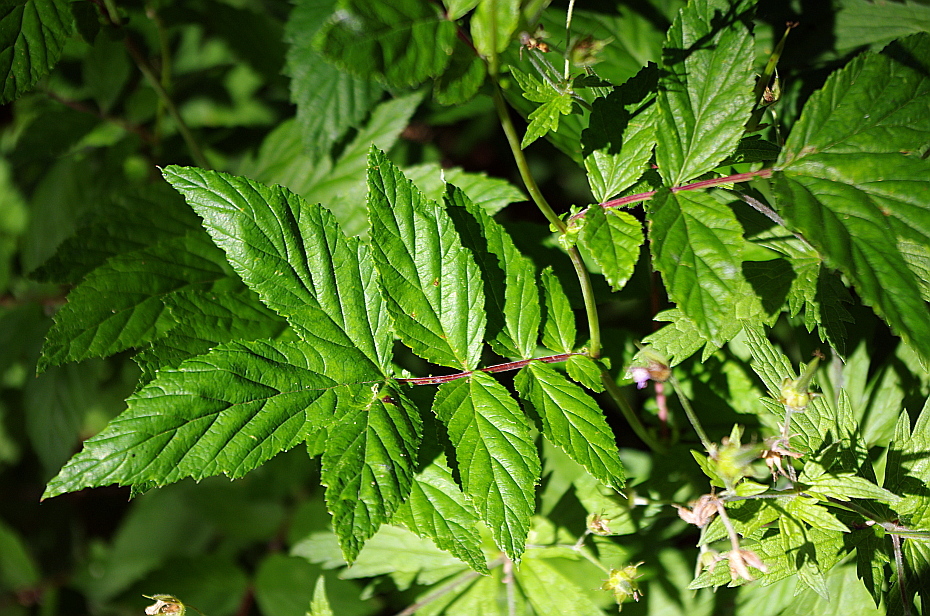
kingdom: Plantae
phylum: Tracheophyta
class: Magnoliopsida
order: Rosales
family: Rosaceae
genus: Filipendula
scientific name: Filipendula ulmaria
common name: Meadowsweet
